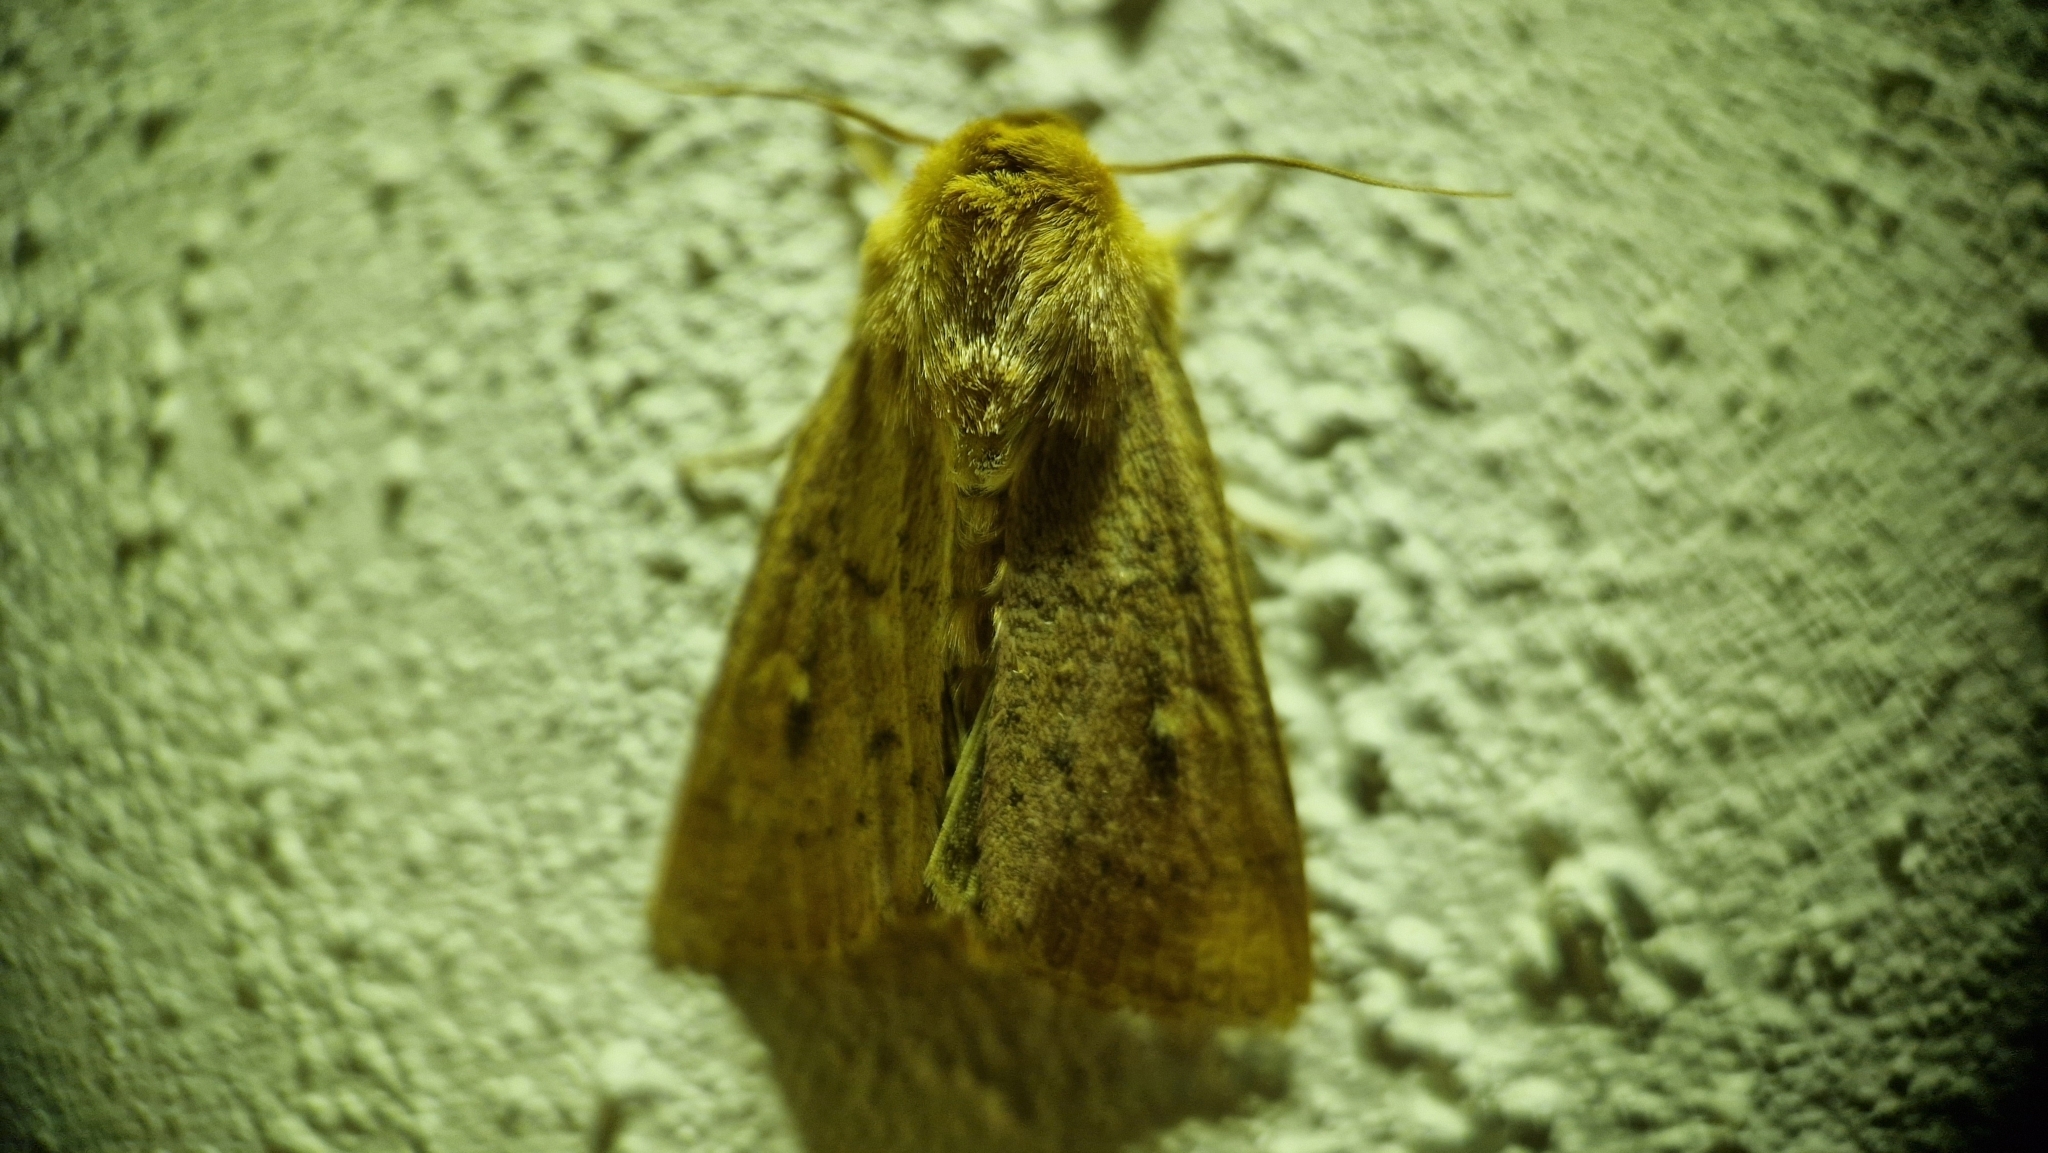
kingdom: Animalia
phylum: Arthropoda
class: Insecta
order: Lepidoptera
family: Noctuidae
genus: Mythimna
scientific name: Mythimna ferrago
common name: Clay
